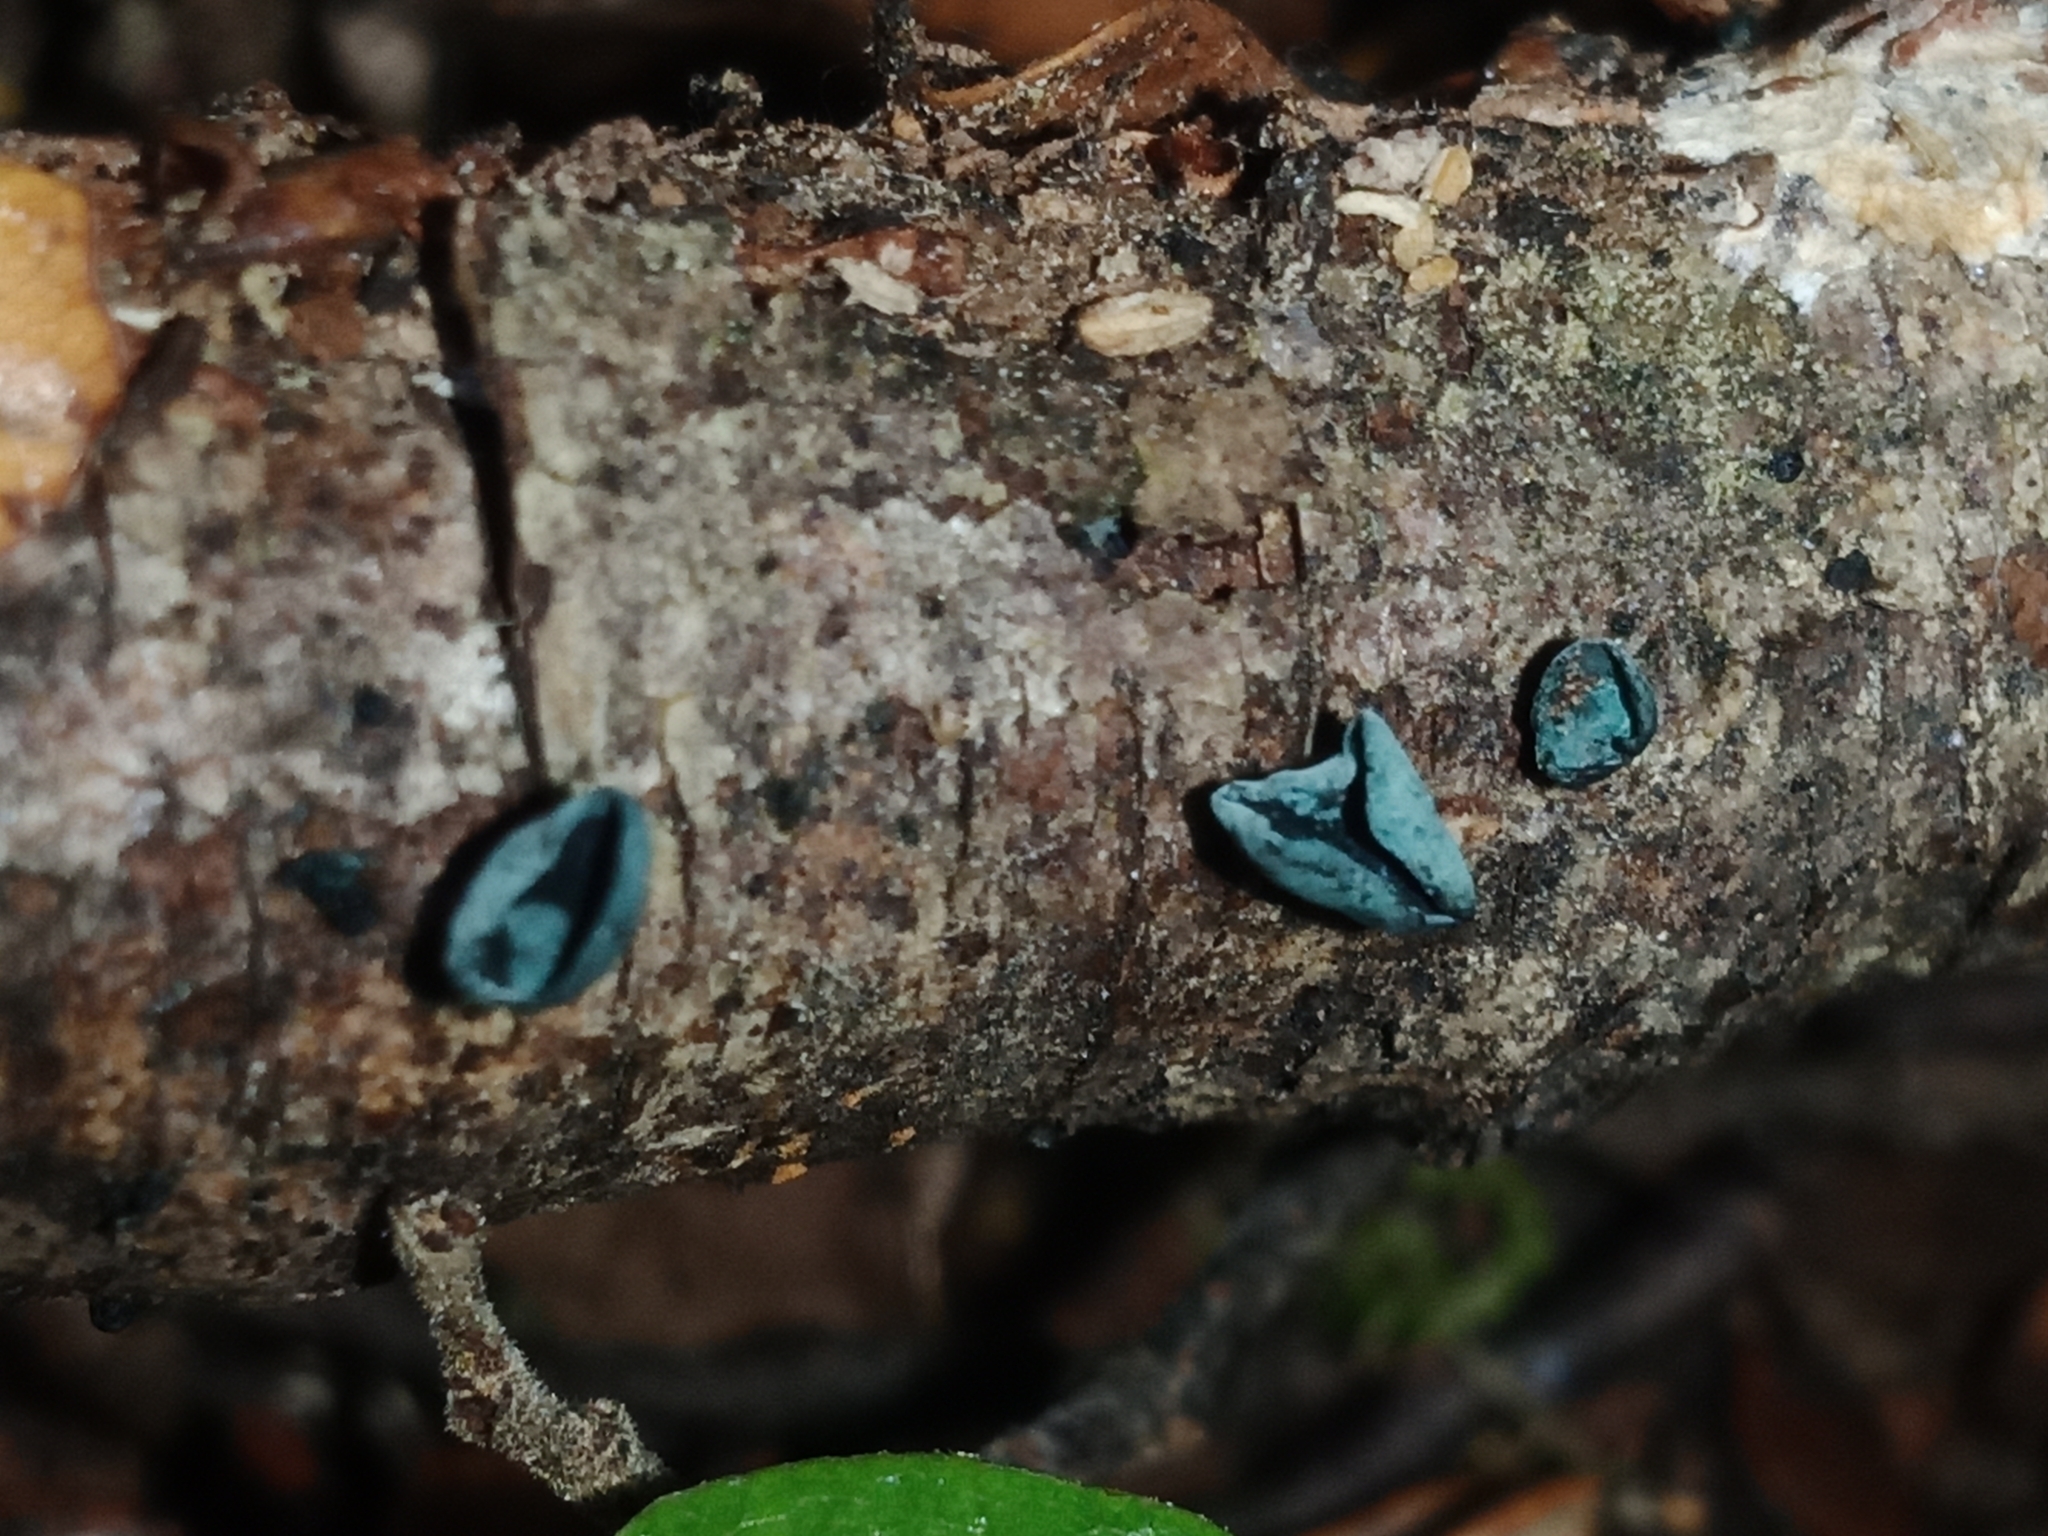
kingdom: Fungi
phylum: Ascomycota
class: Leotiomycetes
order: Helotiales
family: Chlorociboriaceae
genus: Chlorociboria
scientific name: Chlorociboria
